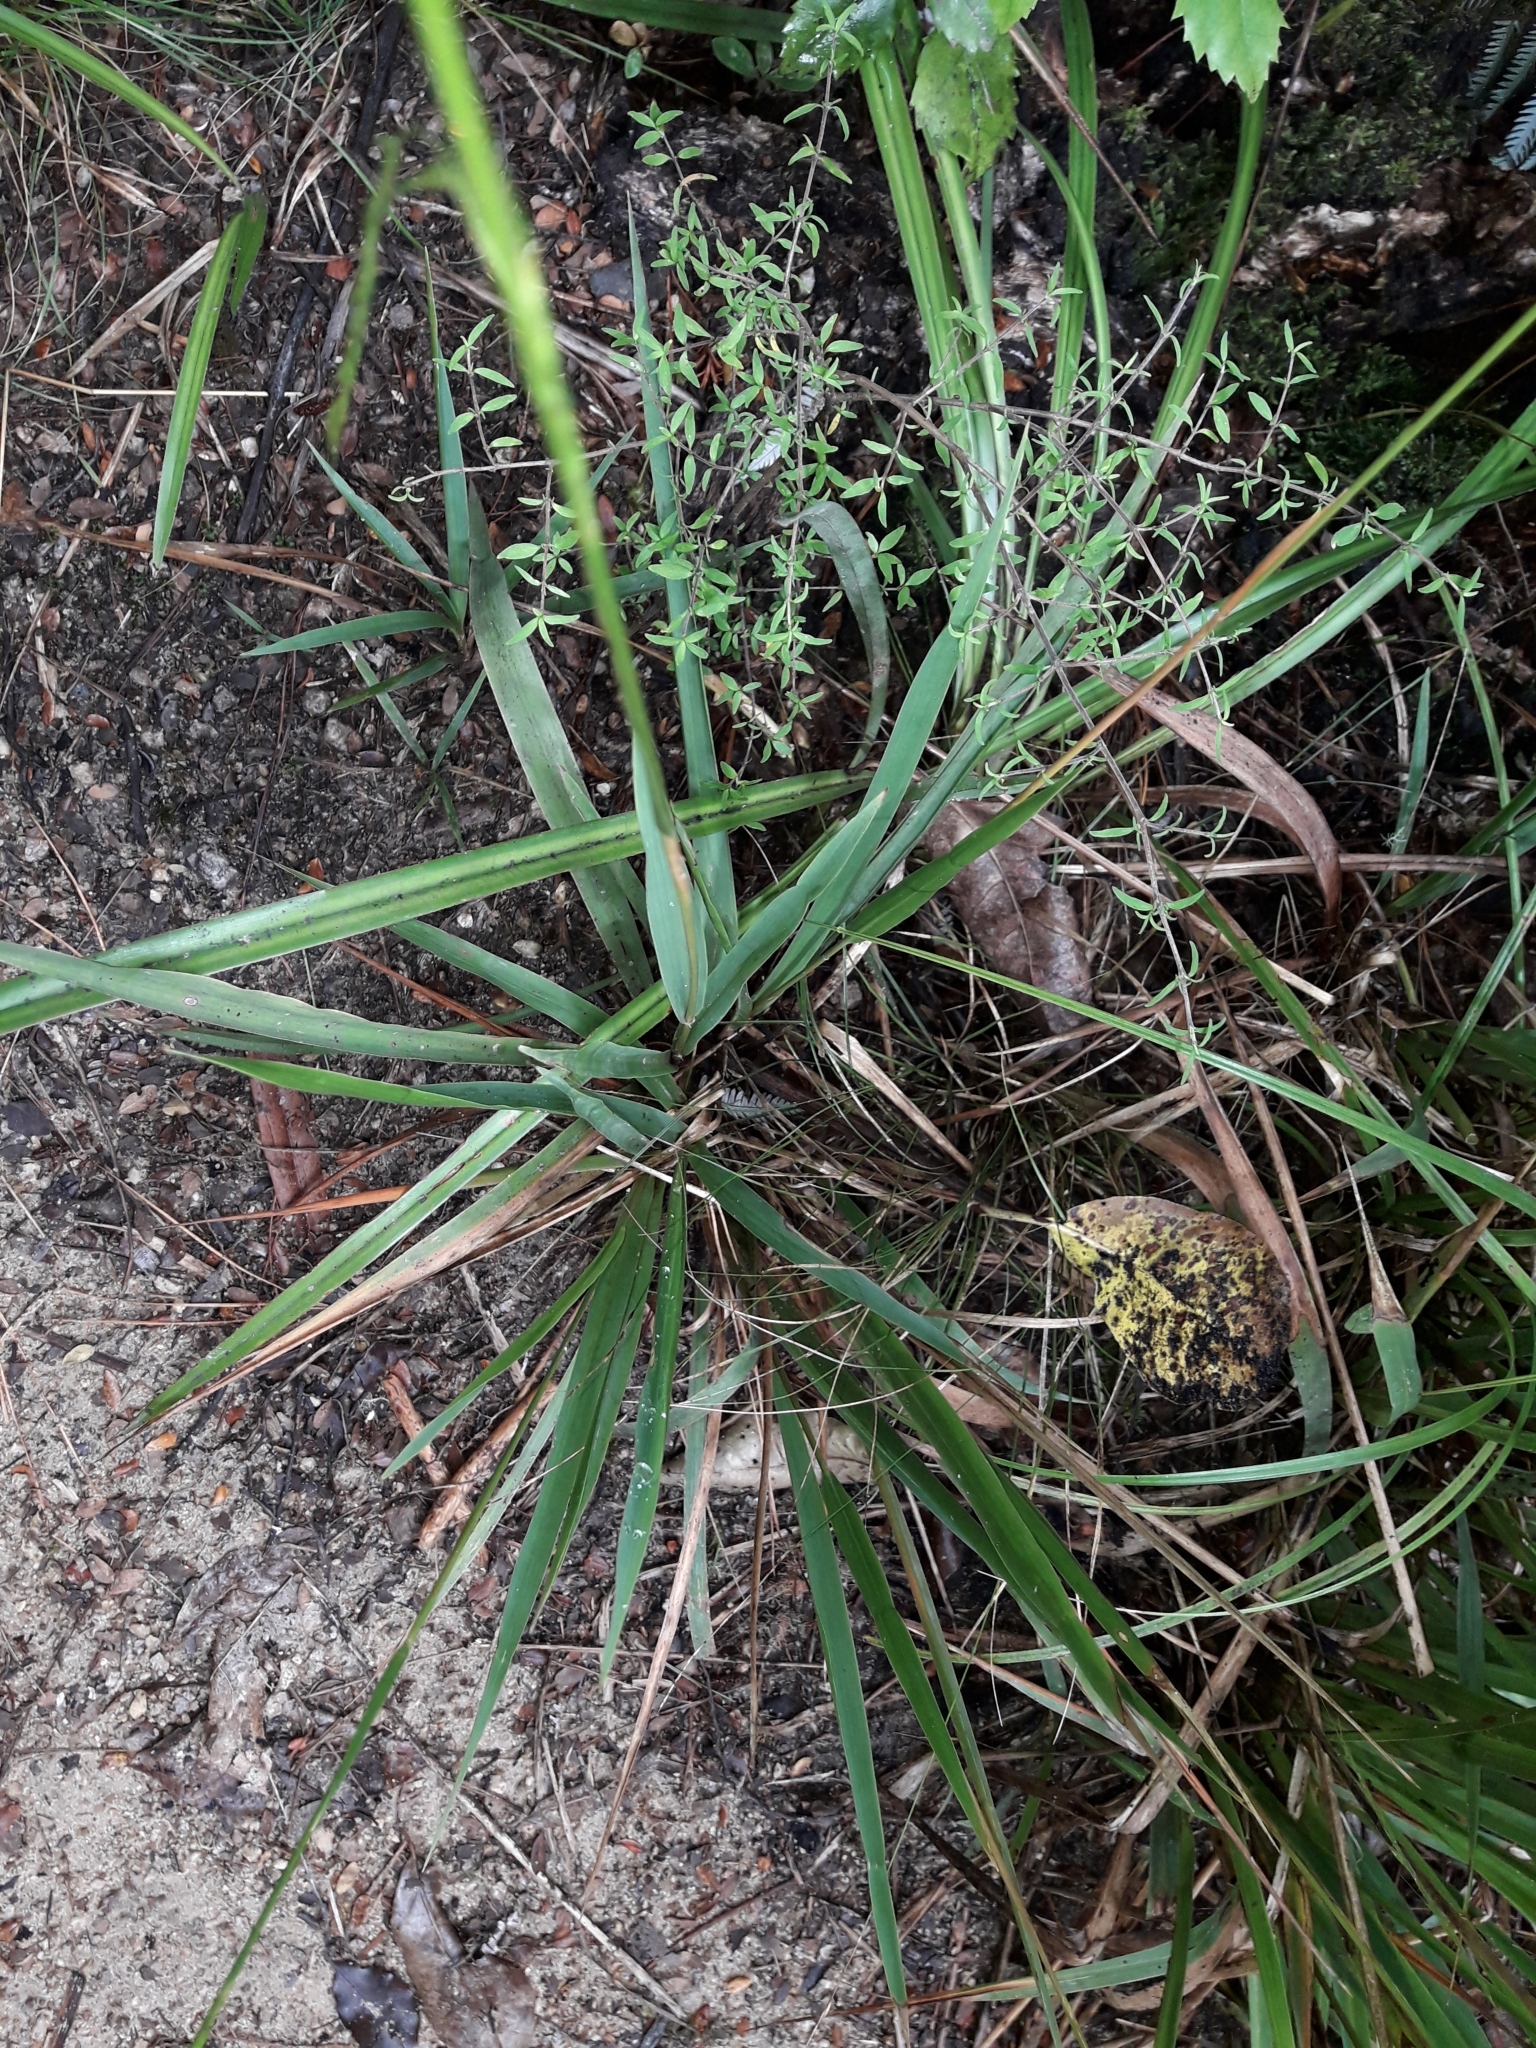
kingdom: Plantae
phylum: Tracheophyta
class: Liliopsida
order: Poales
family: Poaceae
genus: Ehrharta
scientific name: Ehrharta diplax
